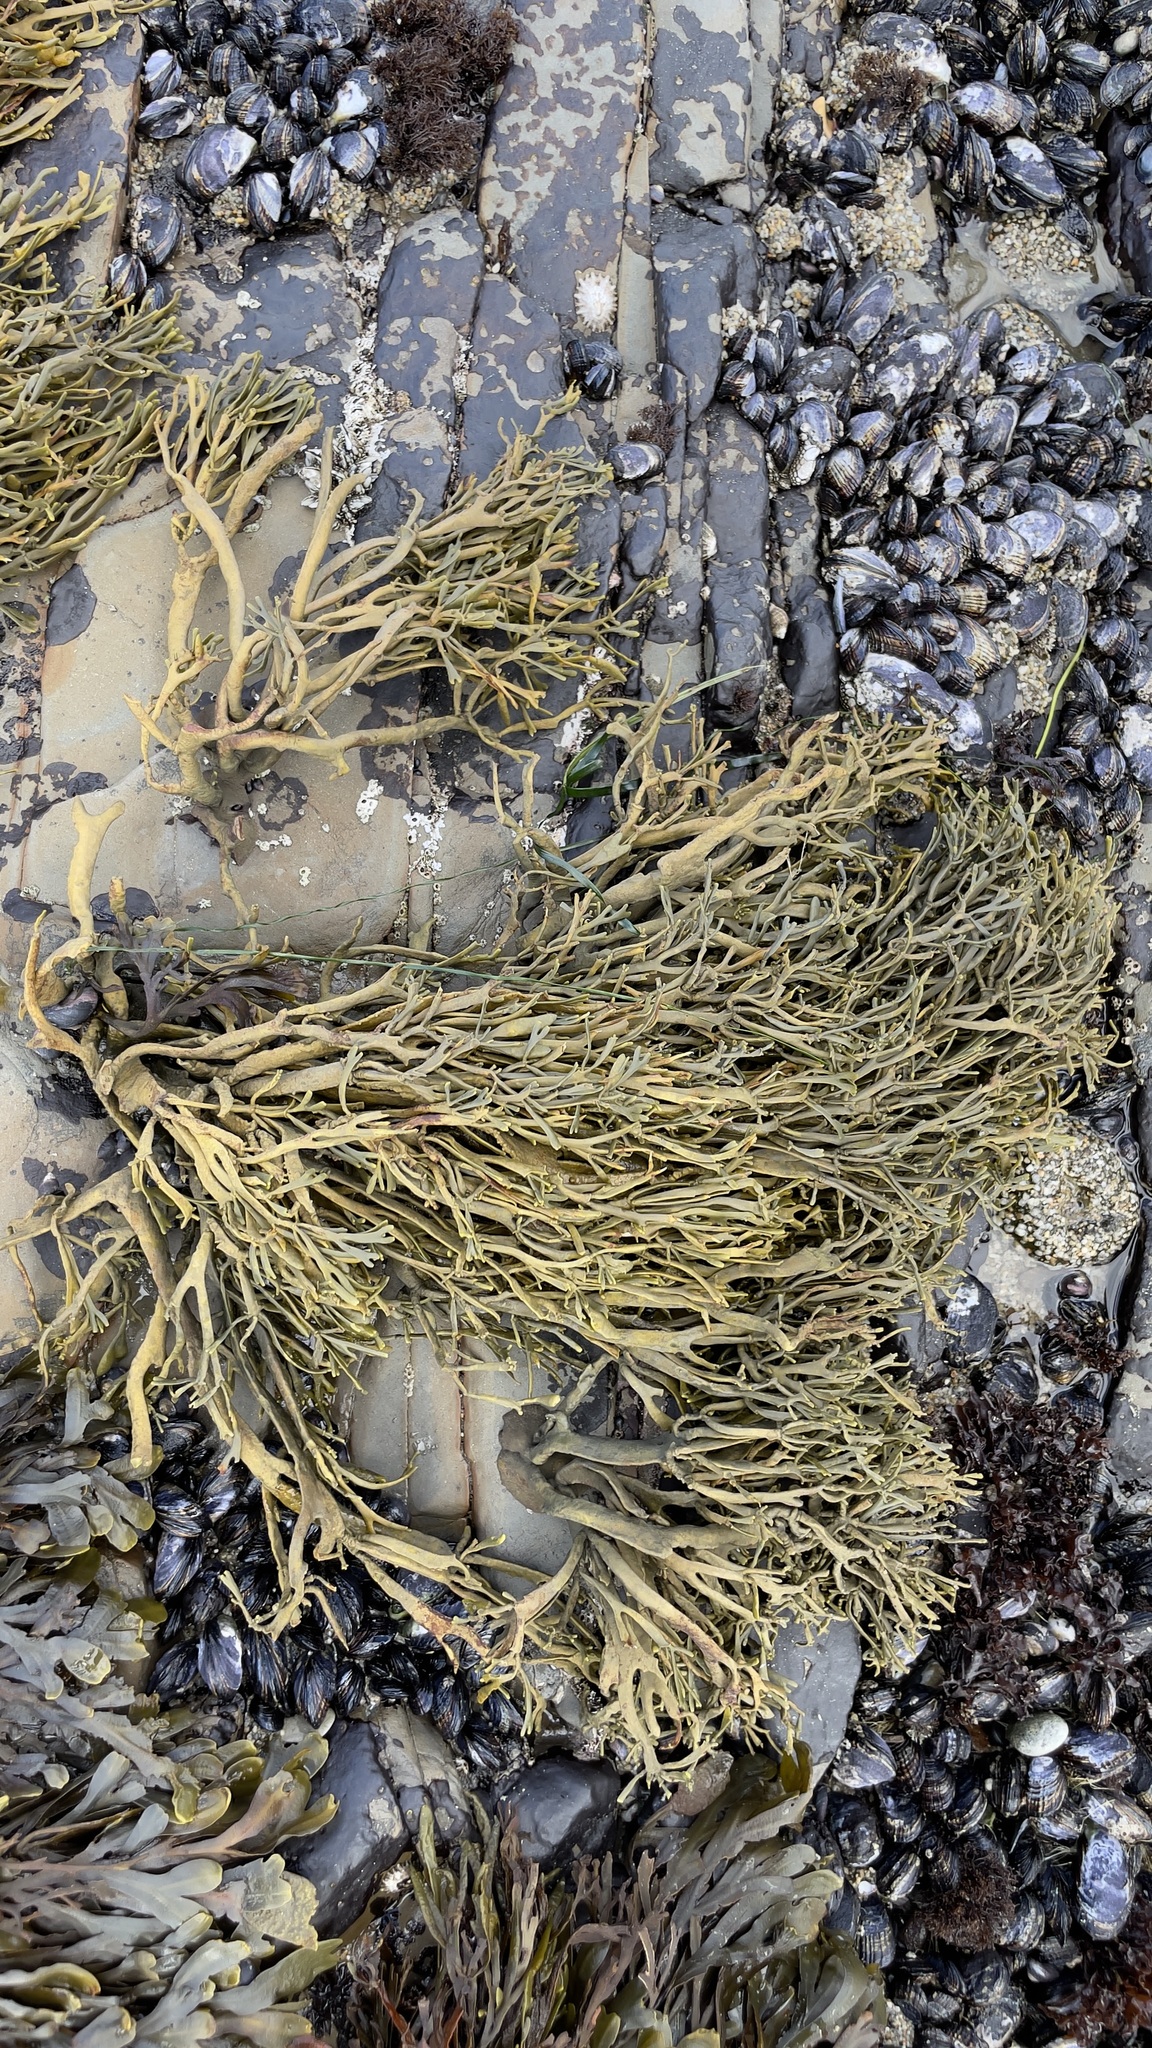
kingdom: Chromista
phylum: Ochrophyta
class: Phaeophyceae
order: Fucales
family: Fucaceae
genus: Silvetia
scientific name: Silvetia
